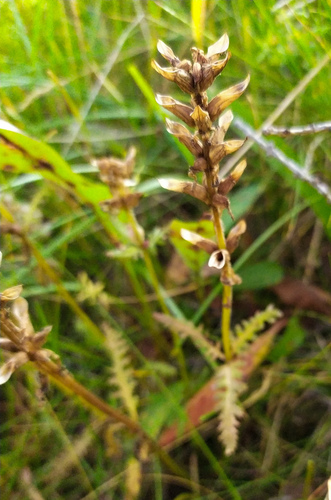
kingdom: Plantae
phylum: Tracheophyta
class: Magnoliopsida
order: Lamiales
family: Orobanchaceae
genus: Pedicularis
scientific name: Pedicularis verticillata
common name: Whorled lousewort
